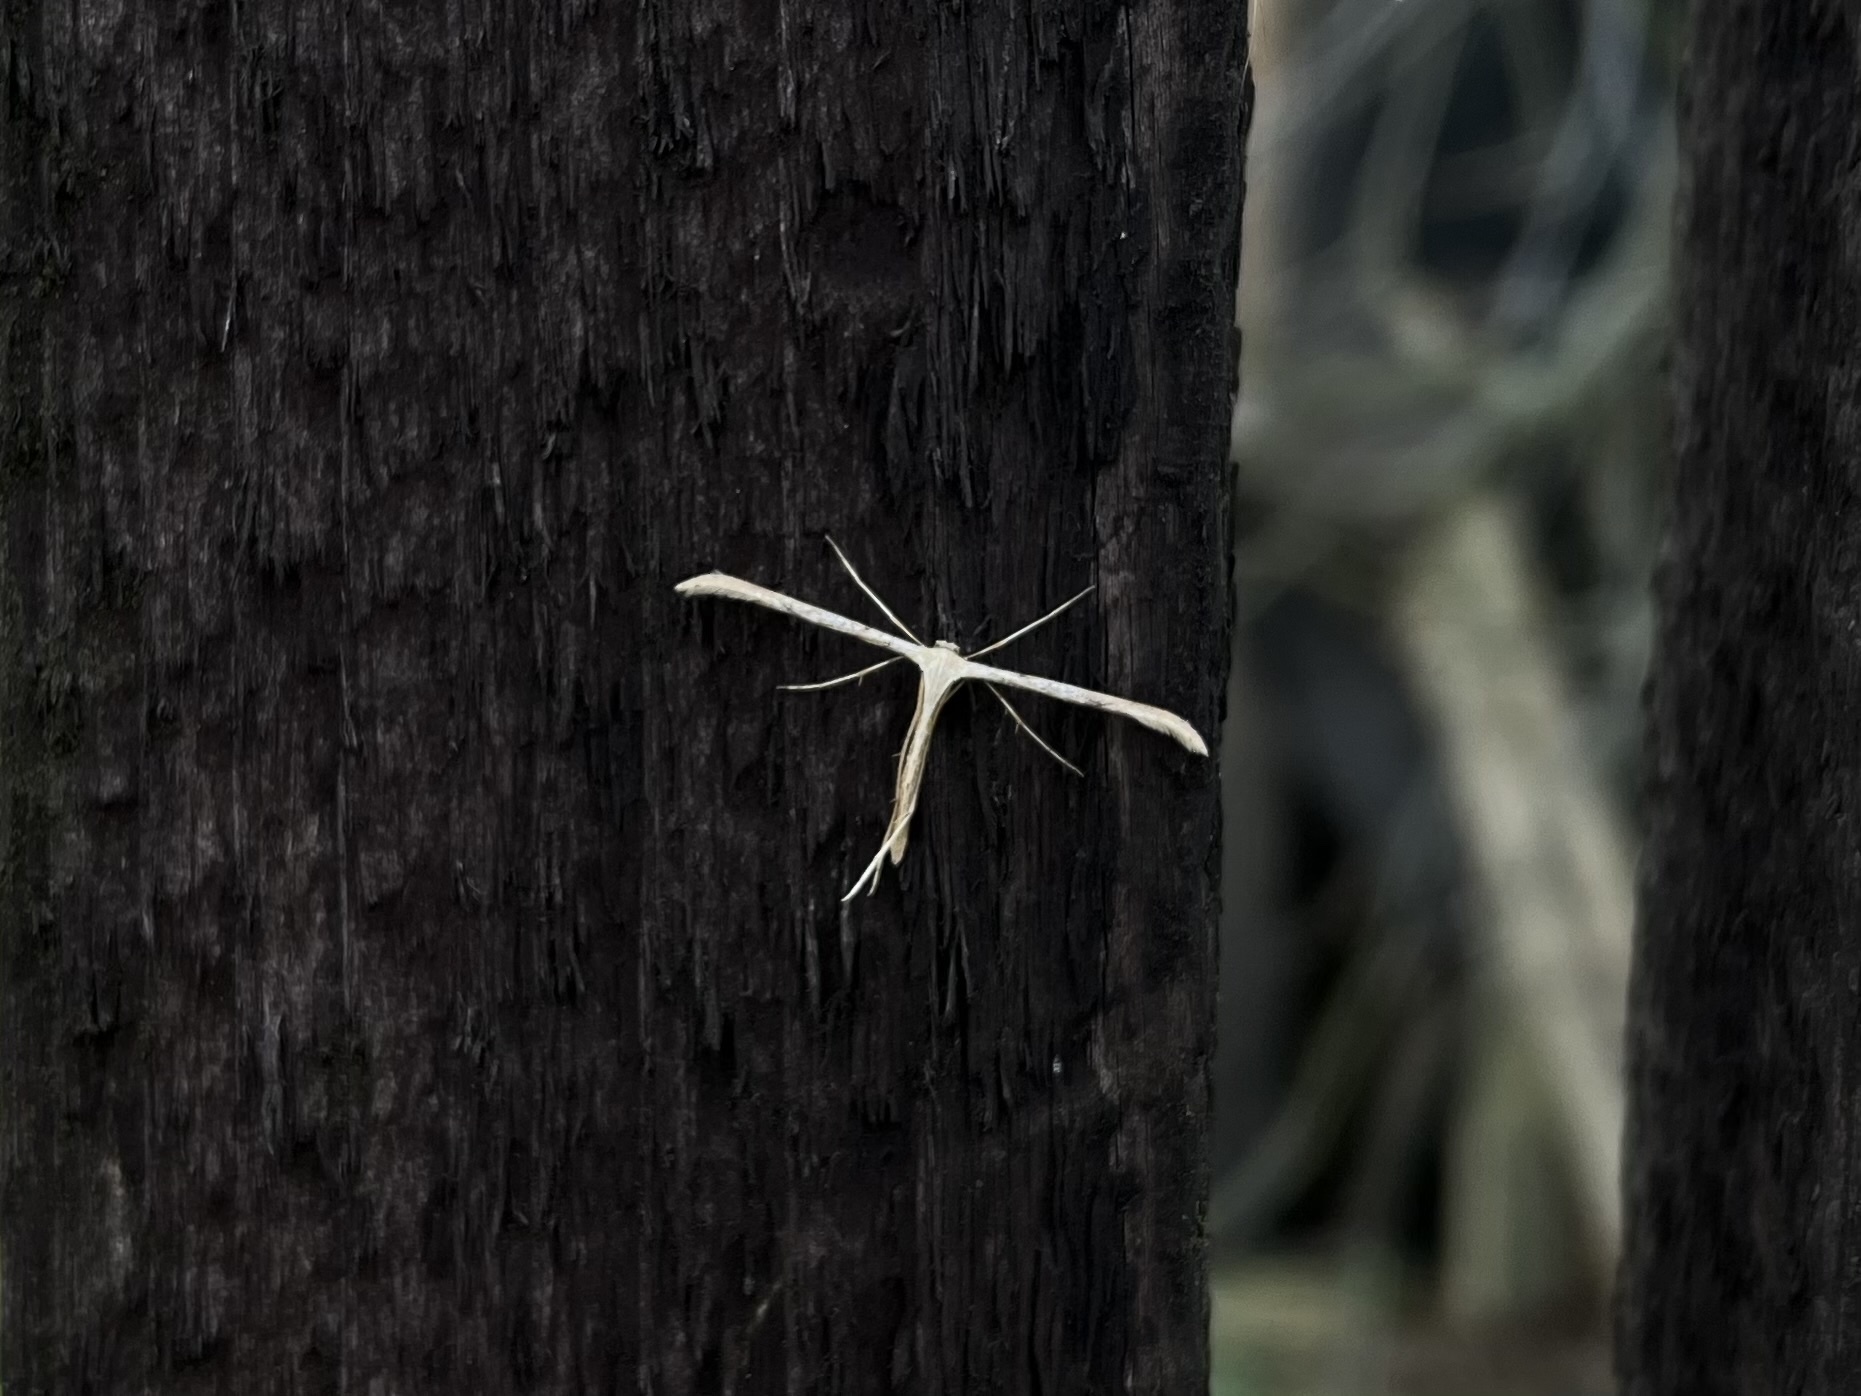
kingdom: Animalia
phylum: Arthropoda
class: Insecta
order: Lepidoptera
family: Pterophoridae
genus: Emmelina
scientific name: Emmelina monodactyla
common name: Common plume
